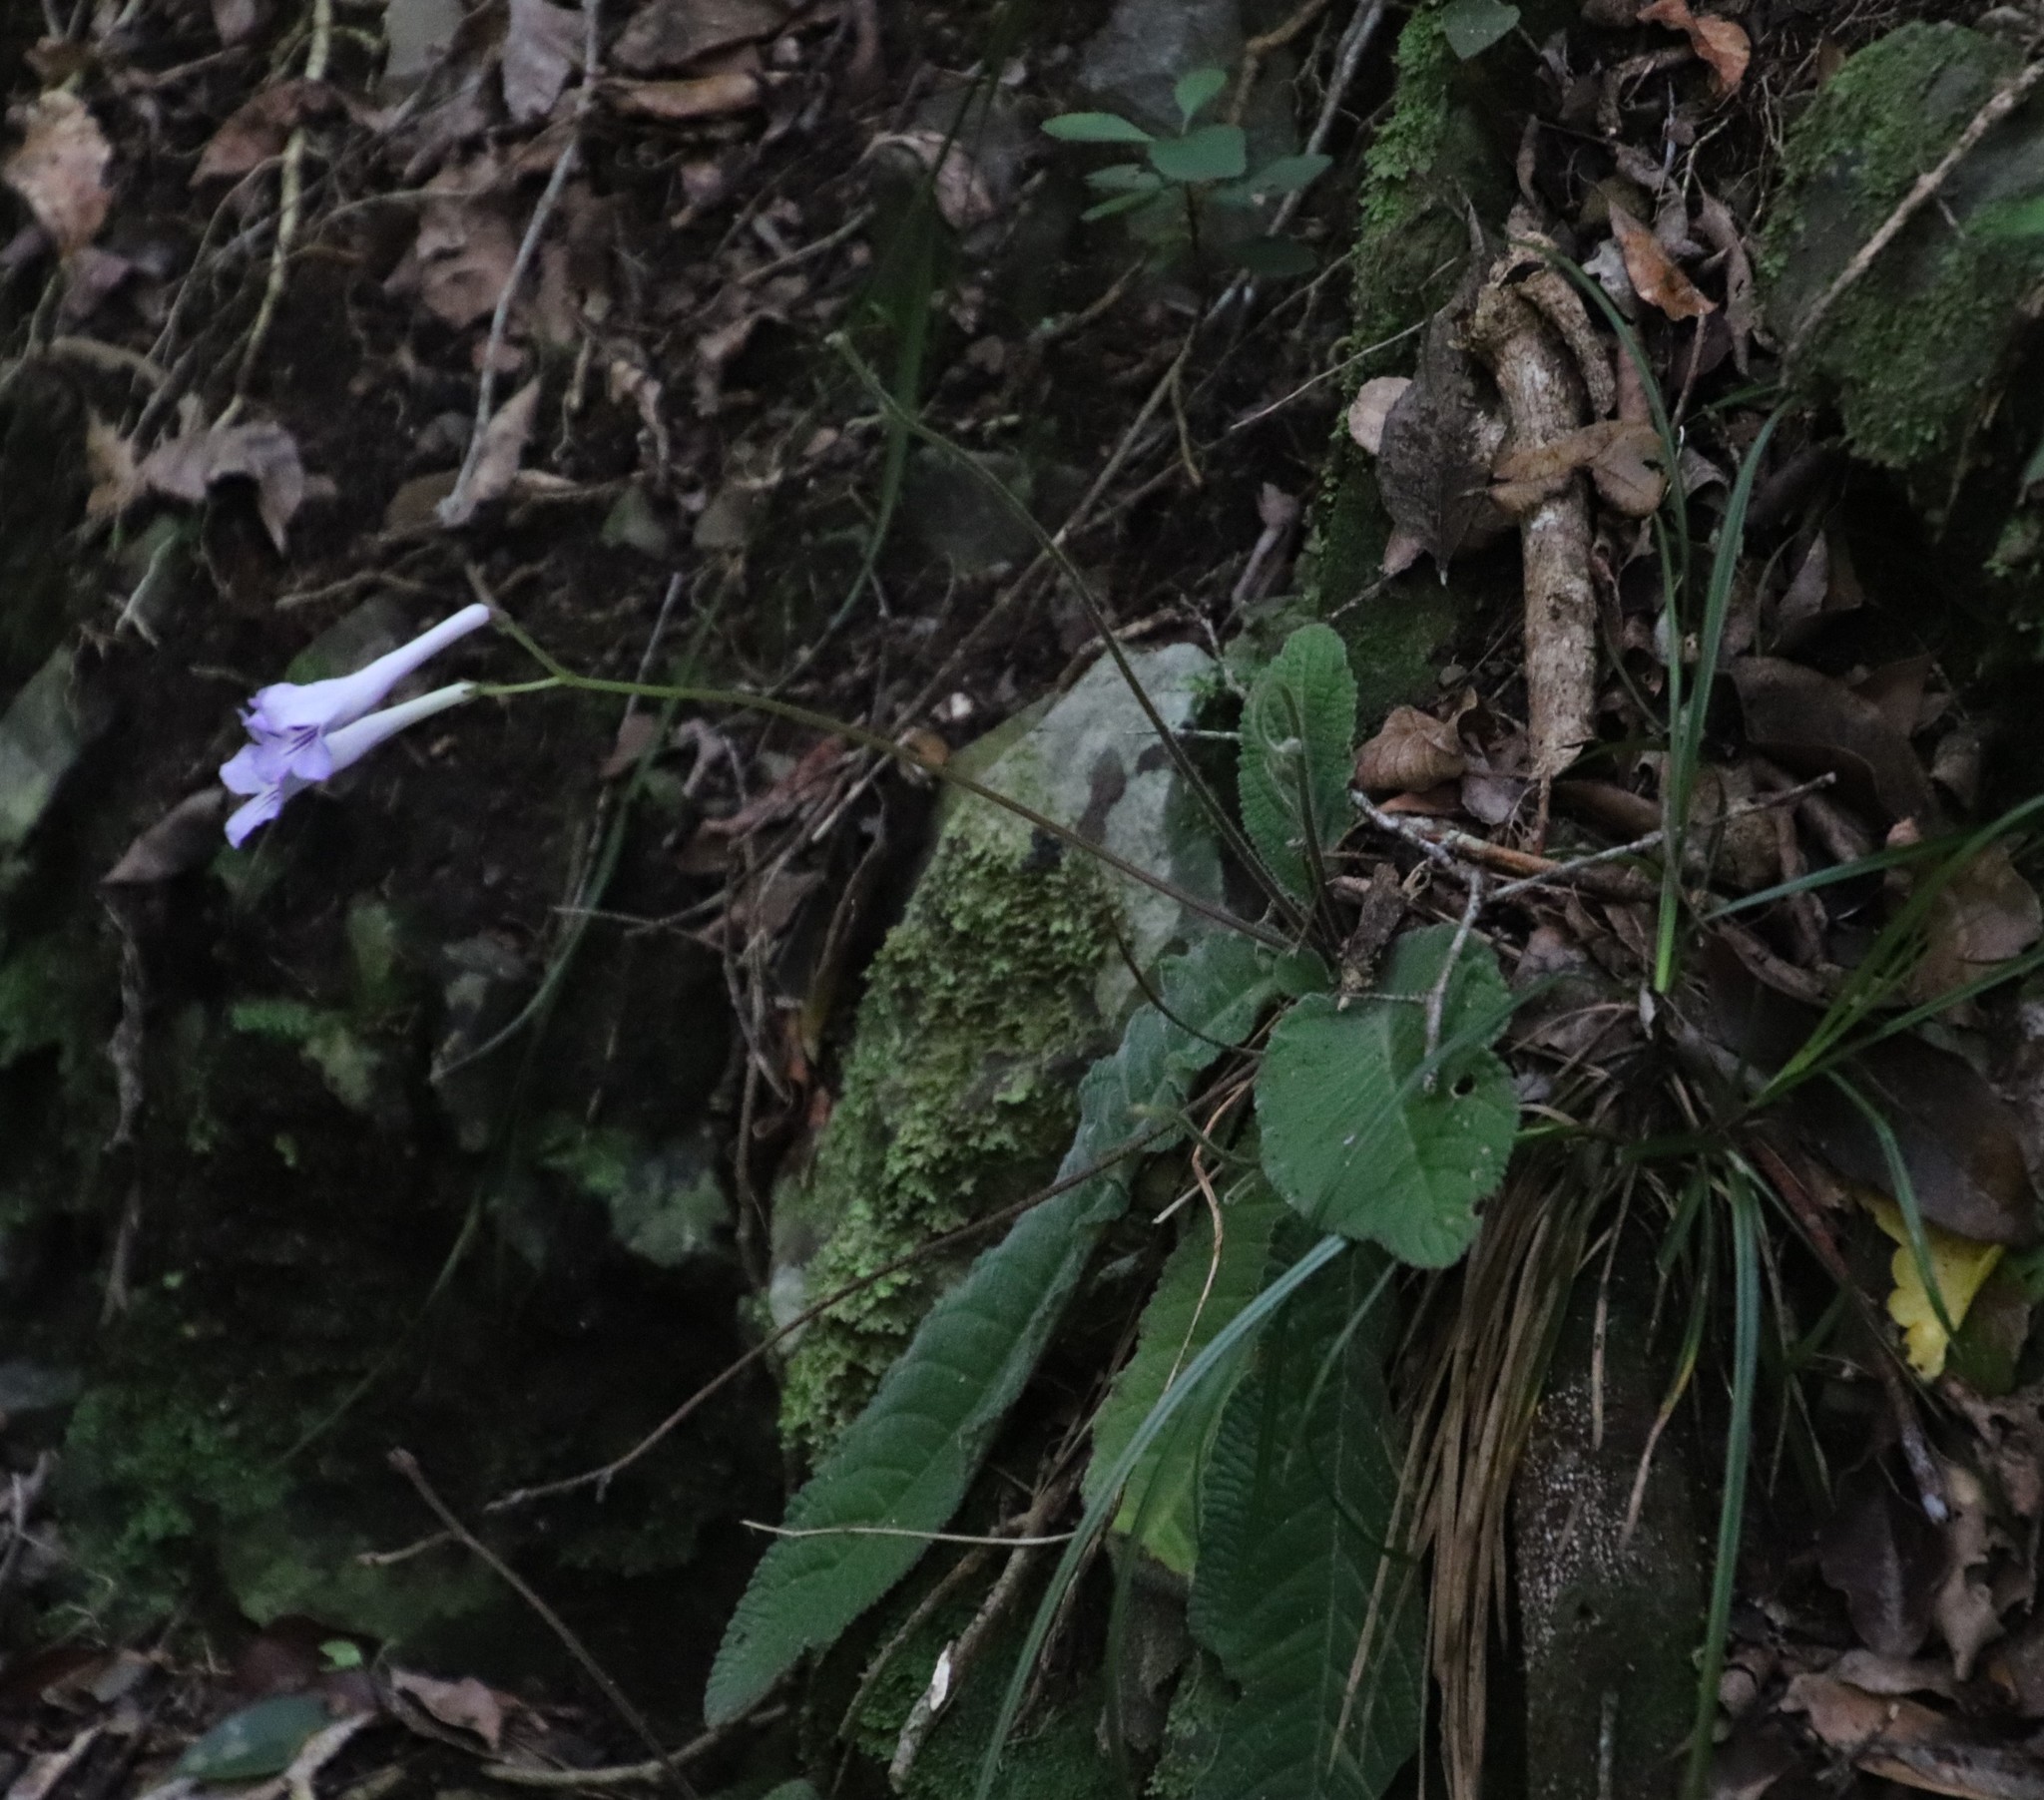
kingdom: Plantae
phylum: Tracheophyta
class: Magnoliopsida
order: Lamiales
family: Gesneriaceae
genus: Streptocarpus
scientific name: Streptocarpus rexii
